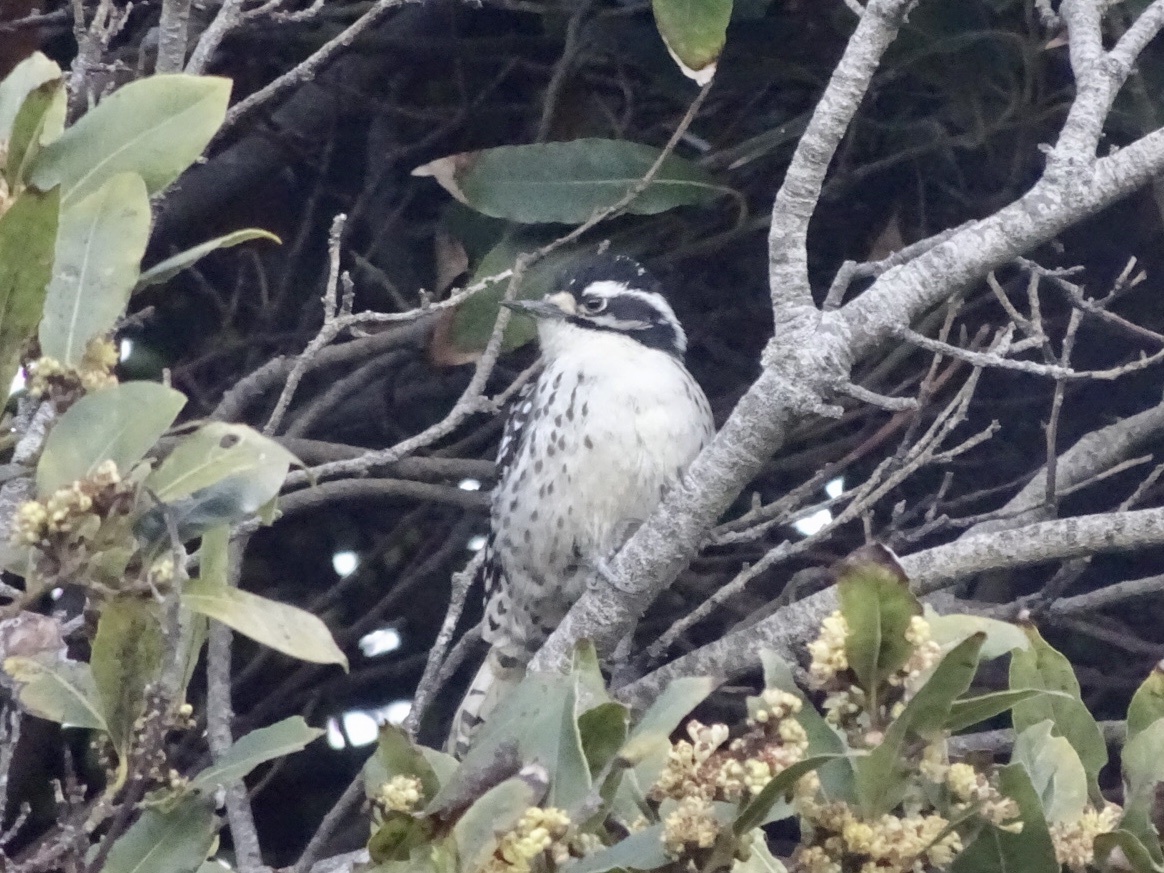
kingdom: Animalia
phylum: Chordata
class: Aves
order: Piciformes
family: Picidae
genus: Dryobates
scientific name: Dryobates nuttallii
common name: Nuttall's woodpecker
